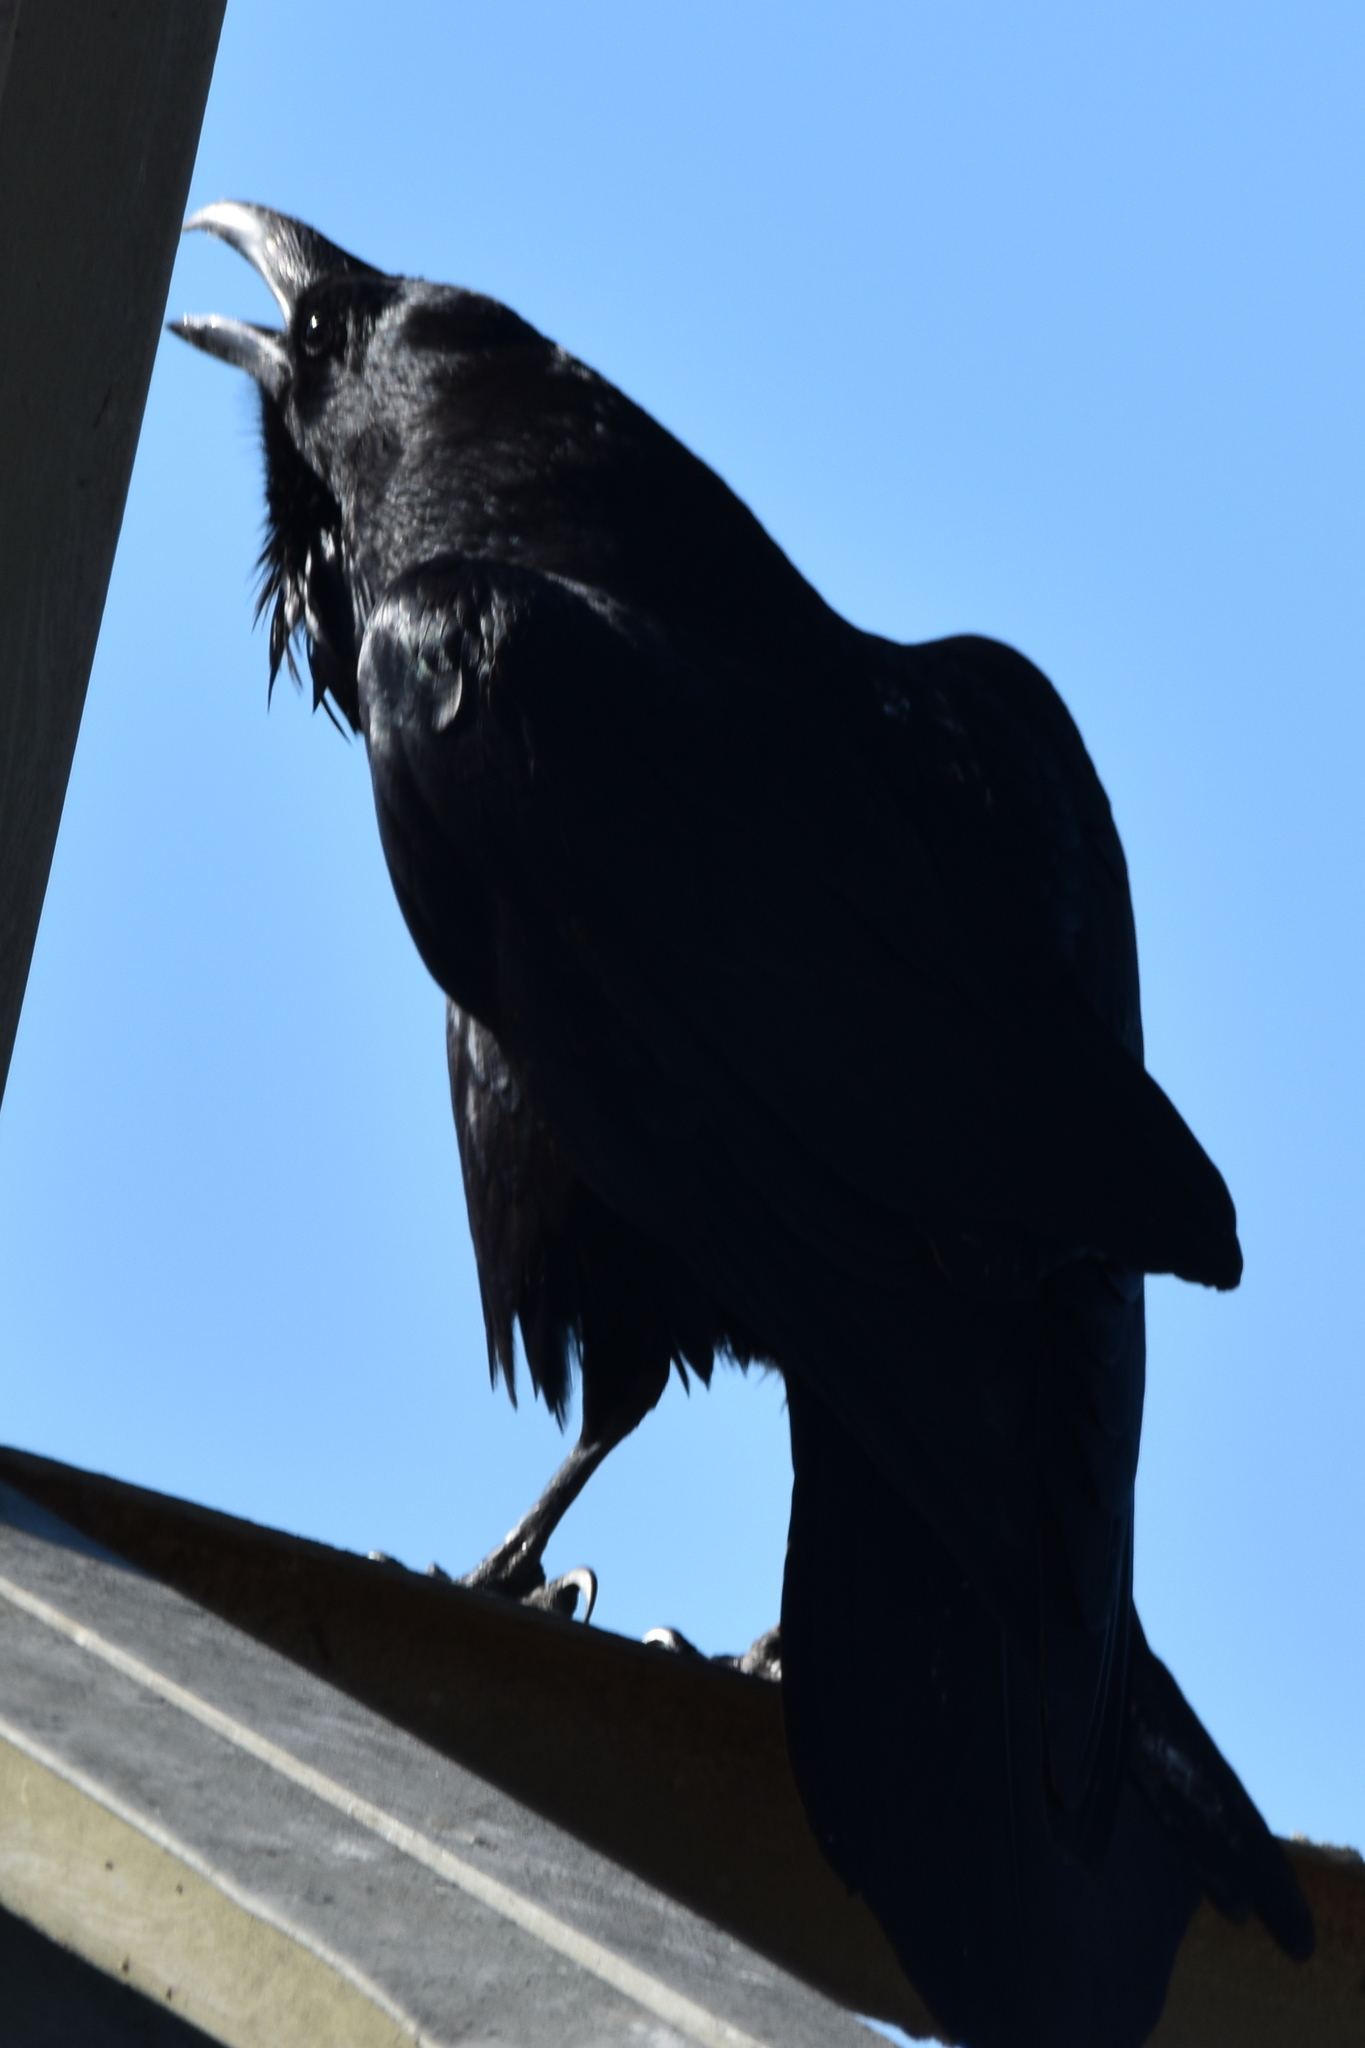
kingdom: Animalia
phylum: Chordata
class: Aves
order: Passeriformes
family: Corvidae
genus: Corvus
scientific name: Corvus corax
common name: Common raven
